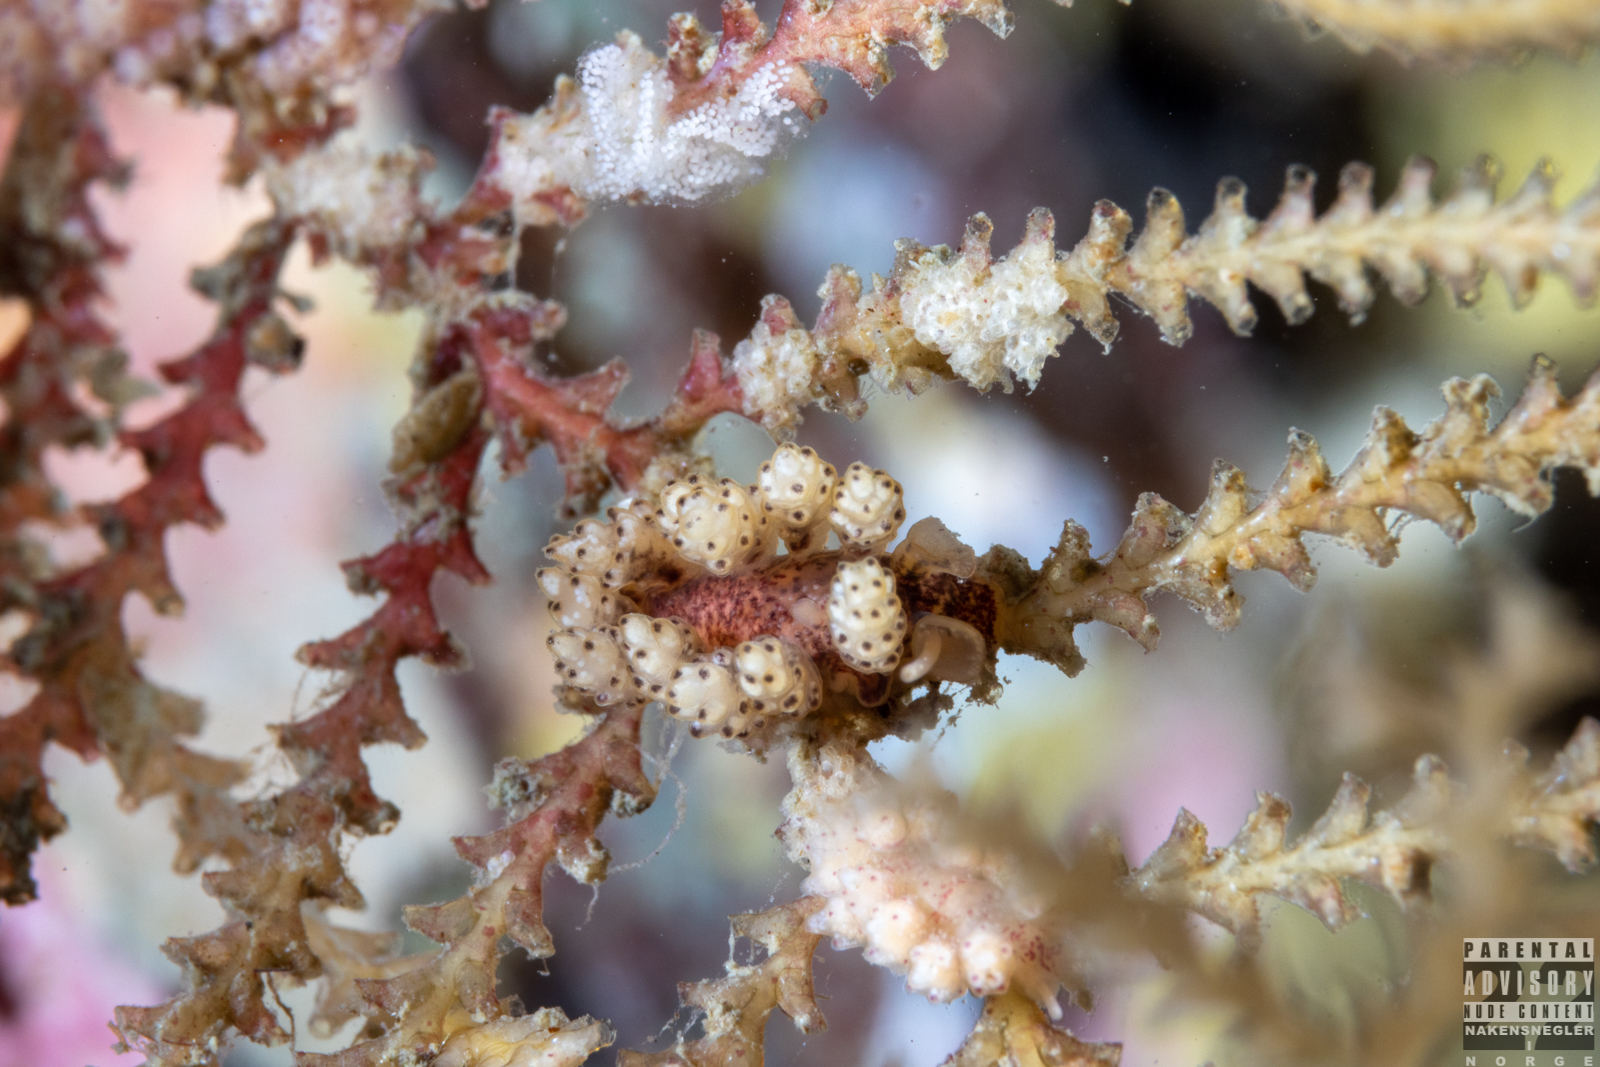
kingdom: Animalia
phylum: Mollusca
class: Gastropoda
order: Nudibranchia
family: Dotidae
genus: Doto
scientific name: Doto coronata
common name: Coronate doto
